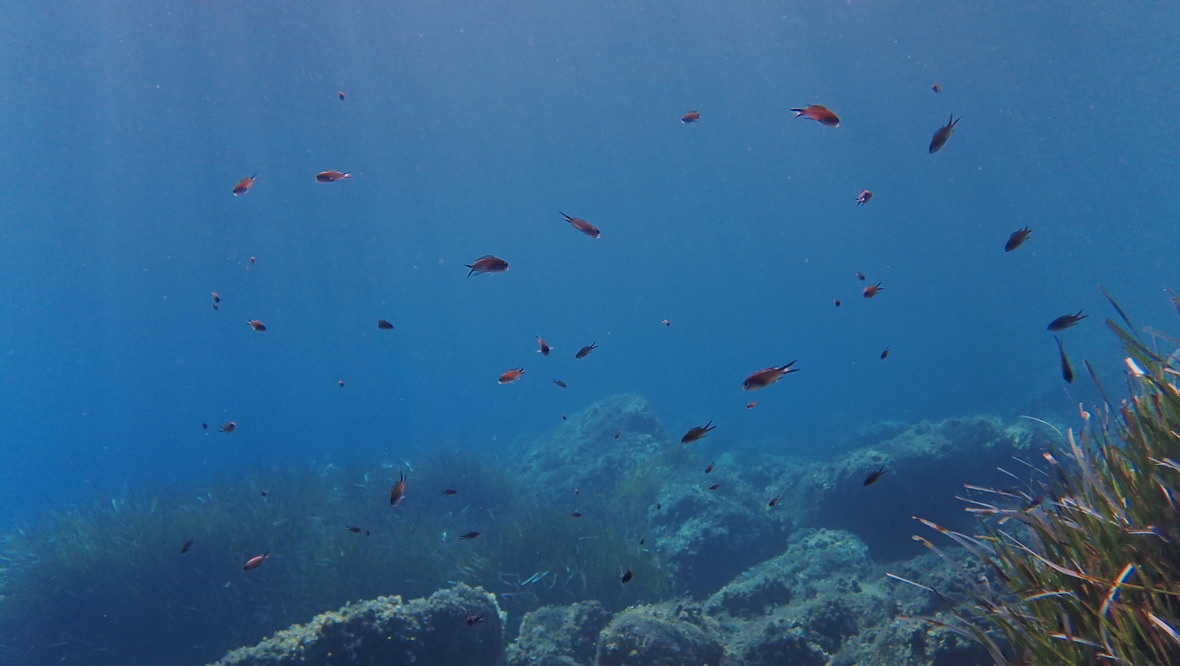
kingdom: Animalia
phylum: Chordata
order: Perciformes
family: Pomacentridae
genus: Chromis
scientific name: Chromis chromis
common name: Damselfish
